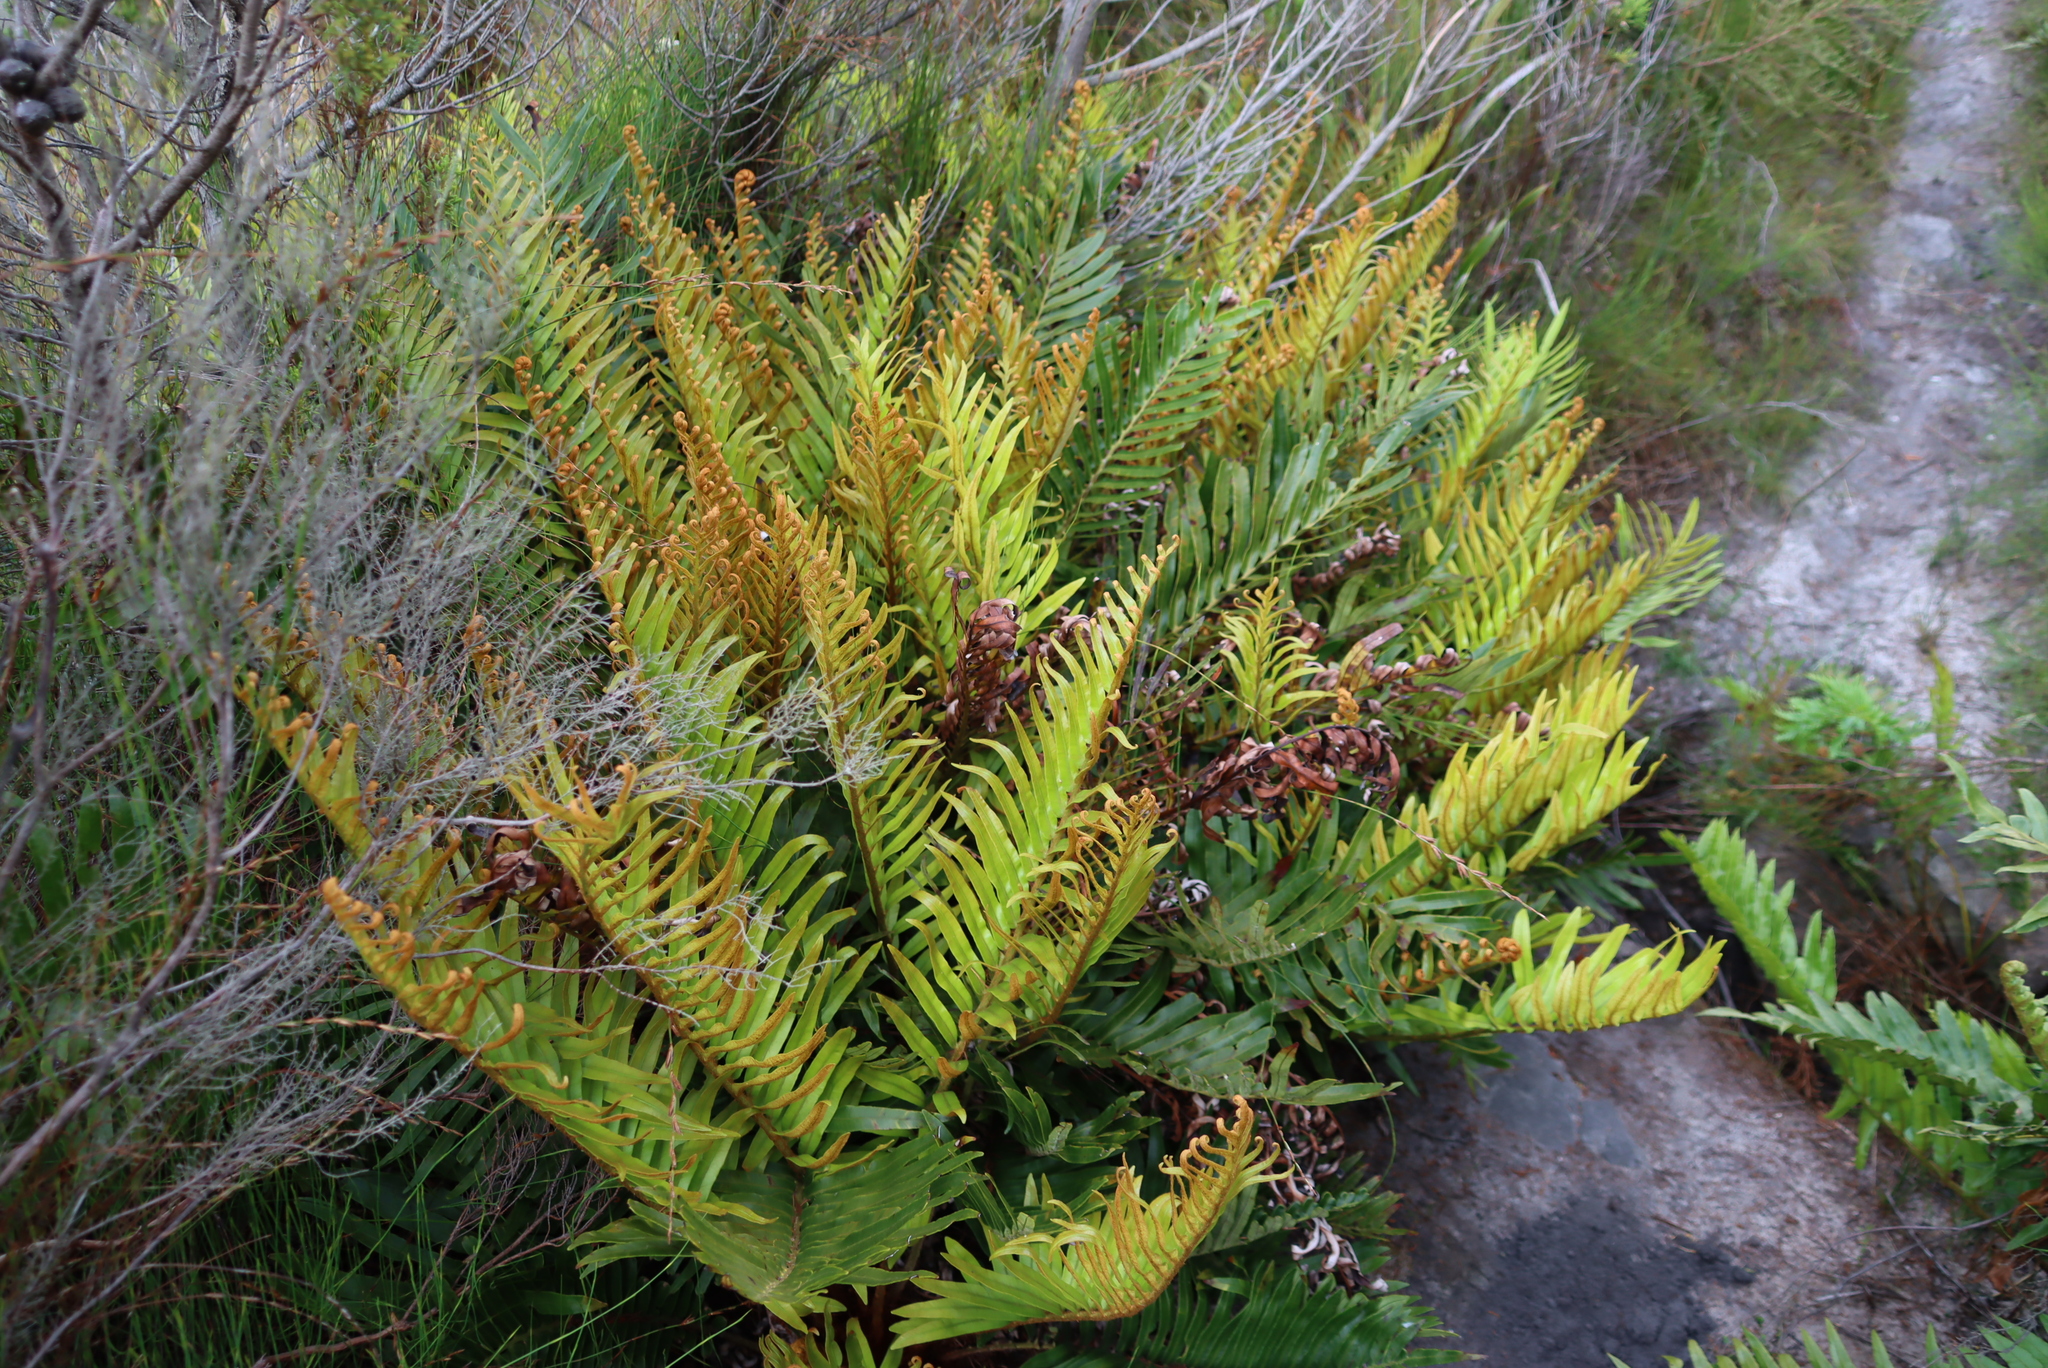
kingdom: Plantae
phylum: Tracheophyta
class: Polypodiopsida
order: Polypodiales
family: Blechnaceae
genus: Lomariocycas
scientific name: Lomariocycas tabularis
